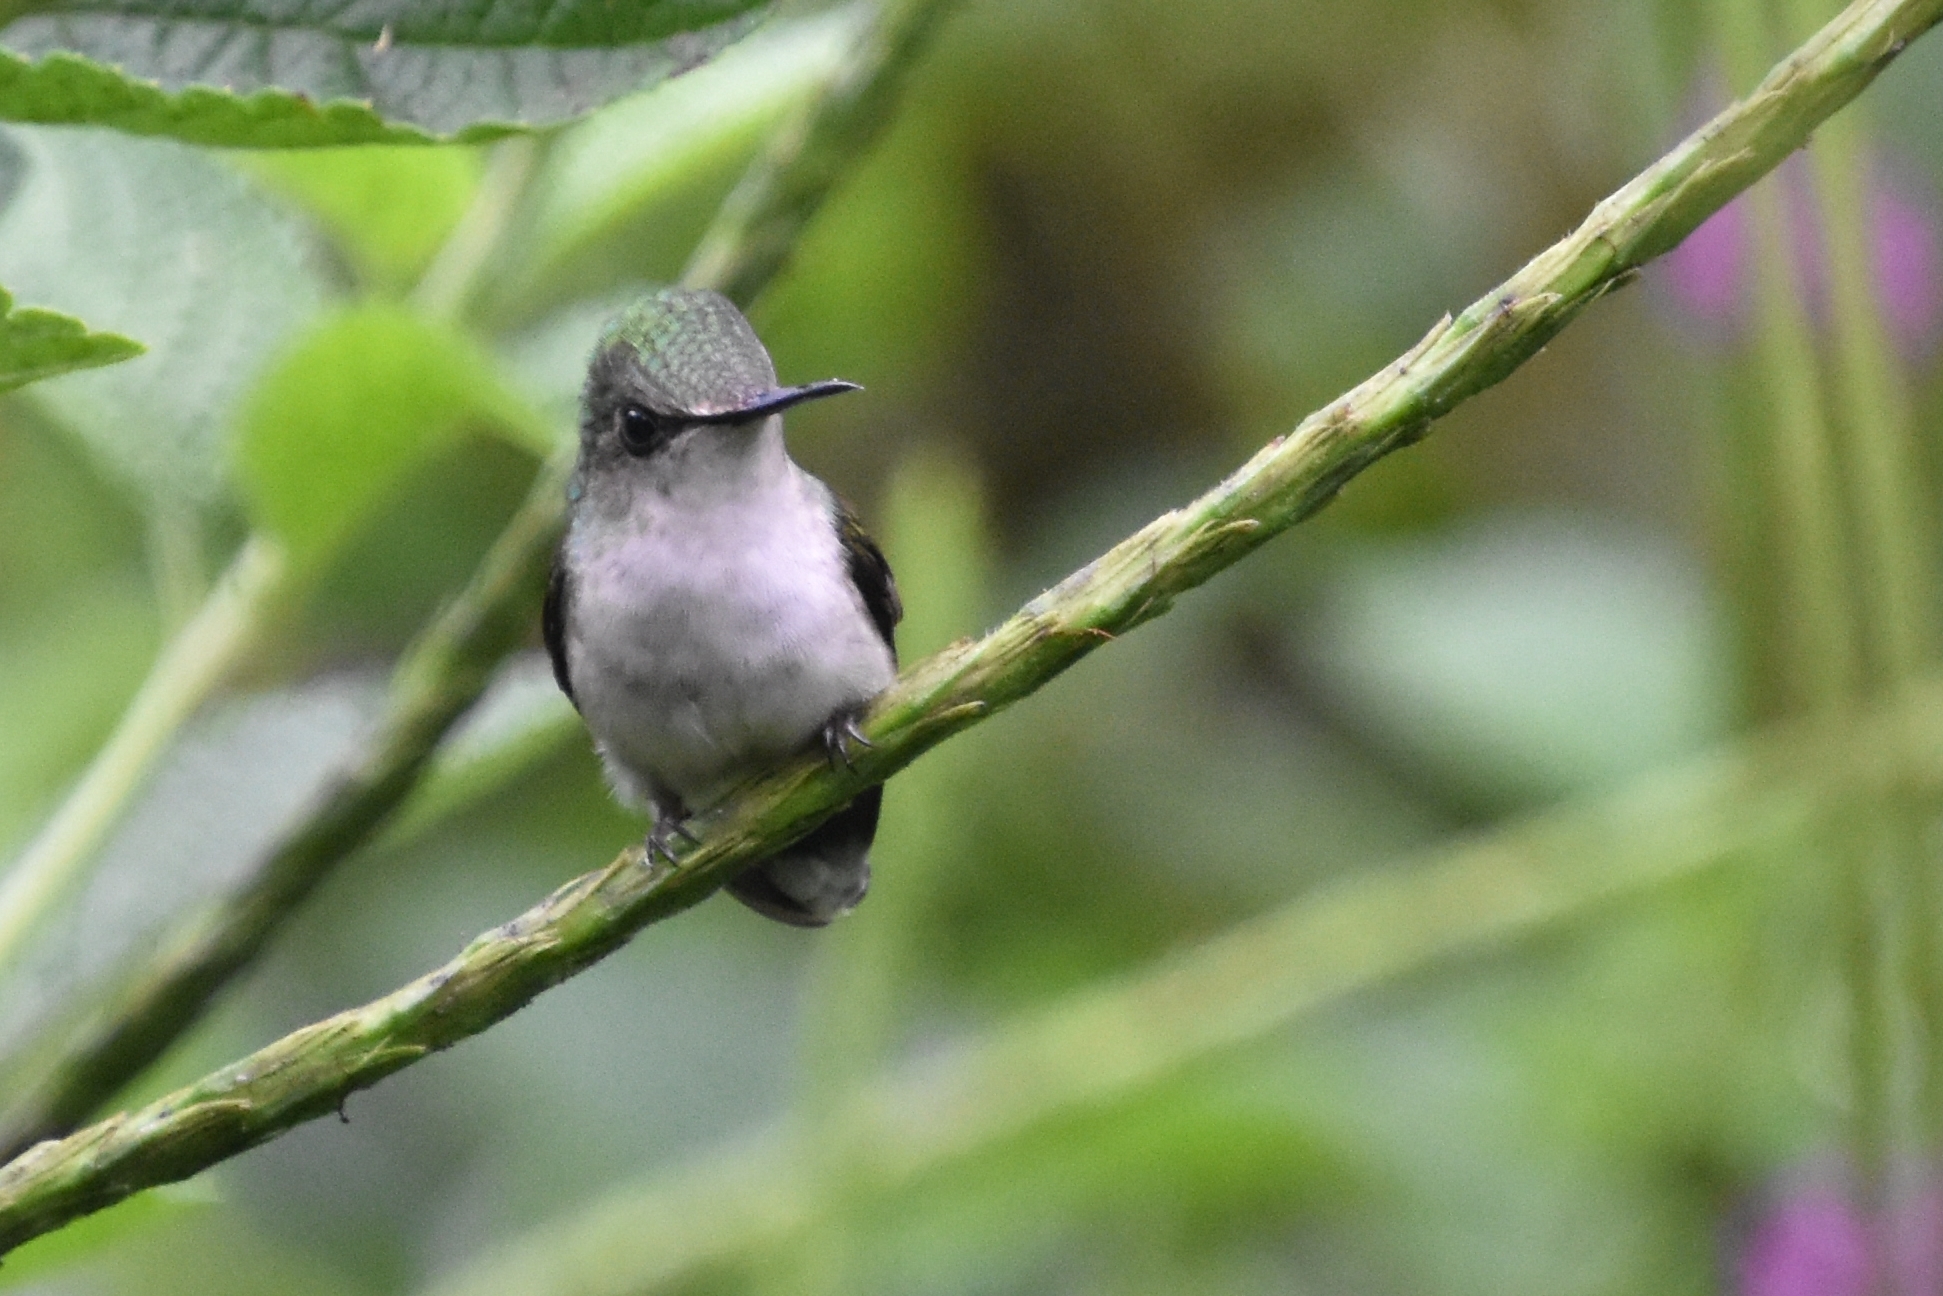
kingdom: Animalia
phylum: Chordata
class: Aves
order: Apodiformes
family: Trochilidae
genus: Microchera
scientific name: Microchera albocoronata
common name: Snowcap
